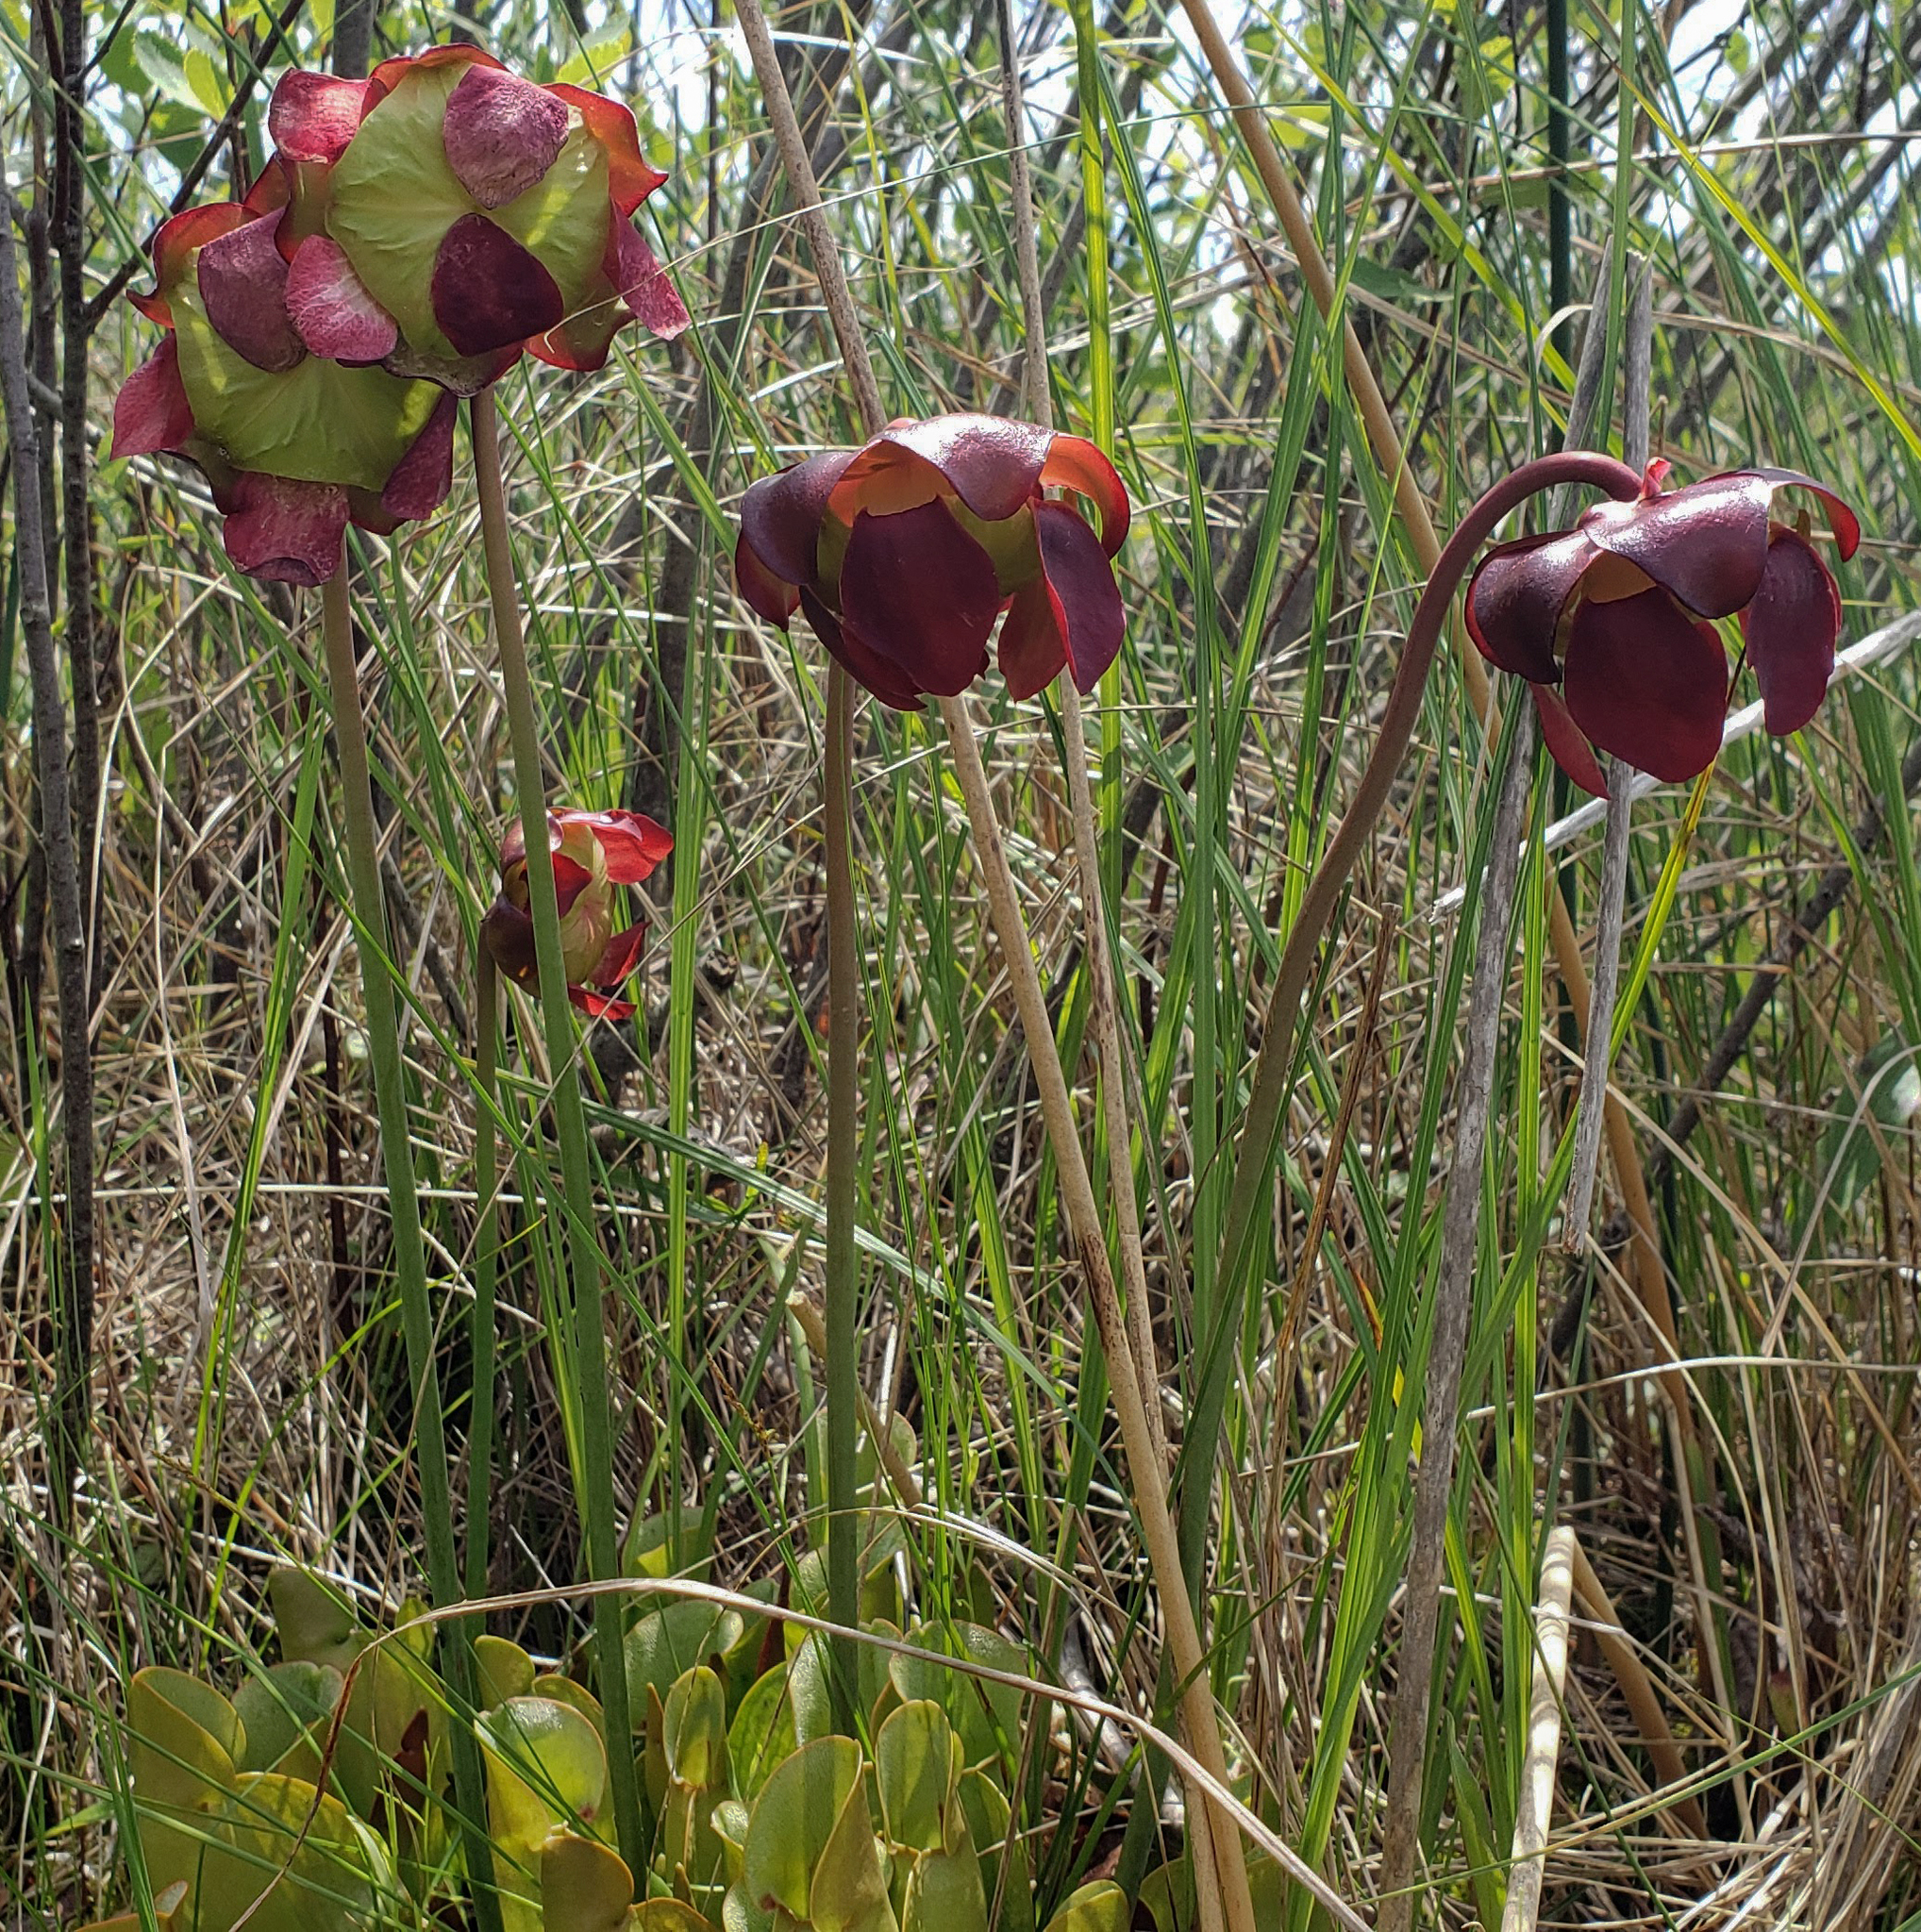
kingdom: Plantae
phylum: Tracheophyta
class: Magnoliopsida
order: Ericales
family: Sarraceniaceae
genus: Sarracenia
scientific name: Sarracenia purpurea
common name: Pitcherplant
